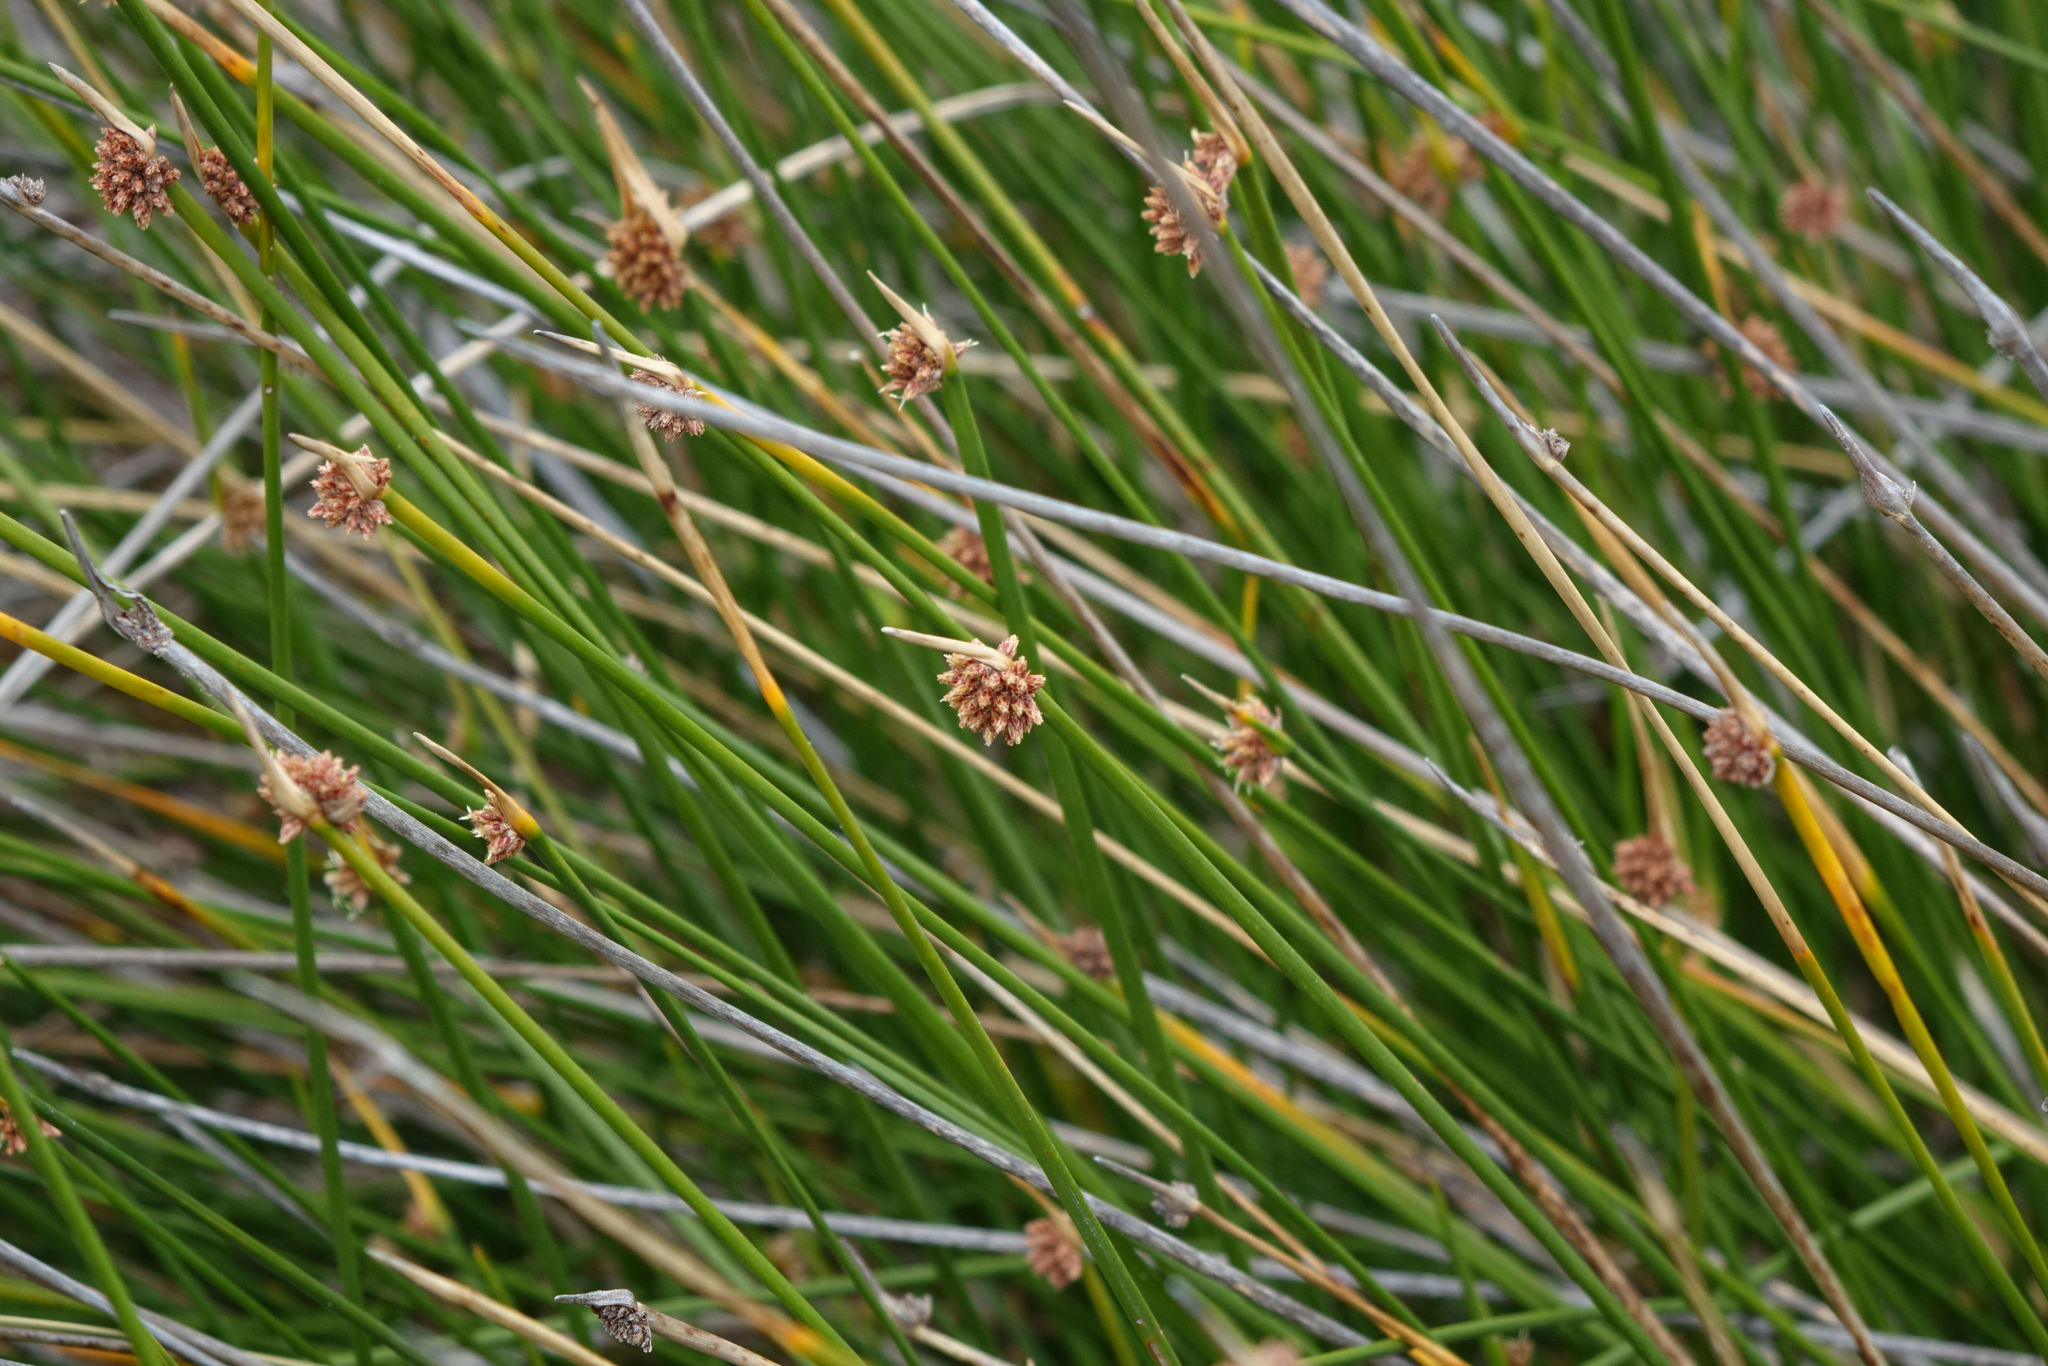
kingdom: Plantae
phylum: Tracheophyta
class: Liliopsida
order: Poales
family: Cyperaceae
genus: Ficinia
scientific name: Ficinia nodosa
